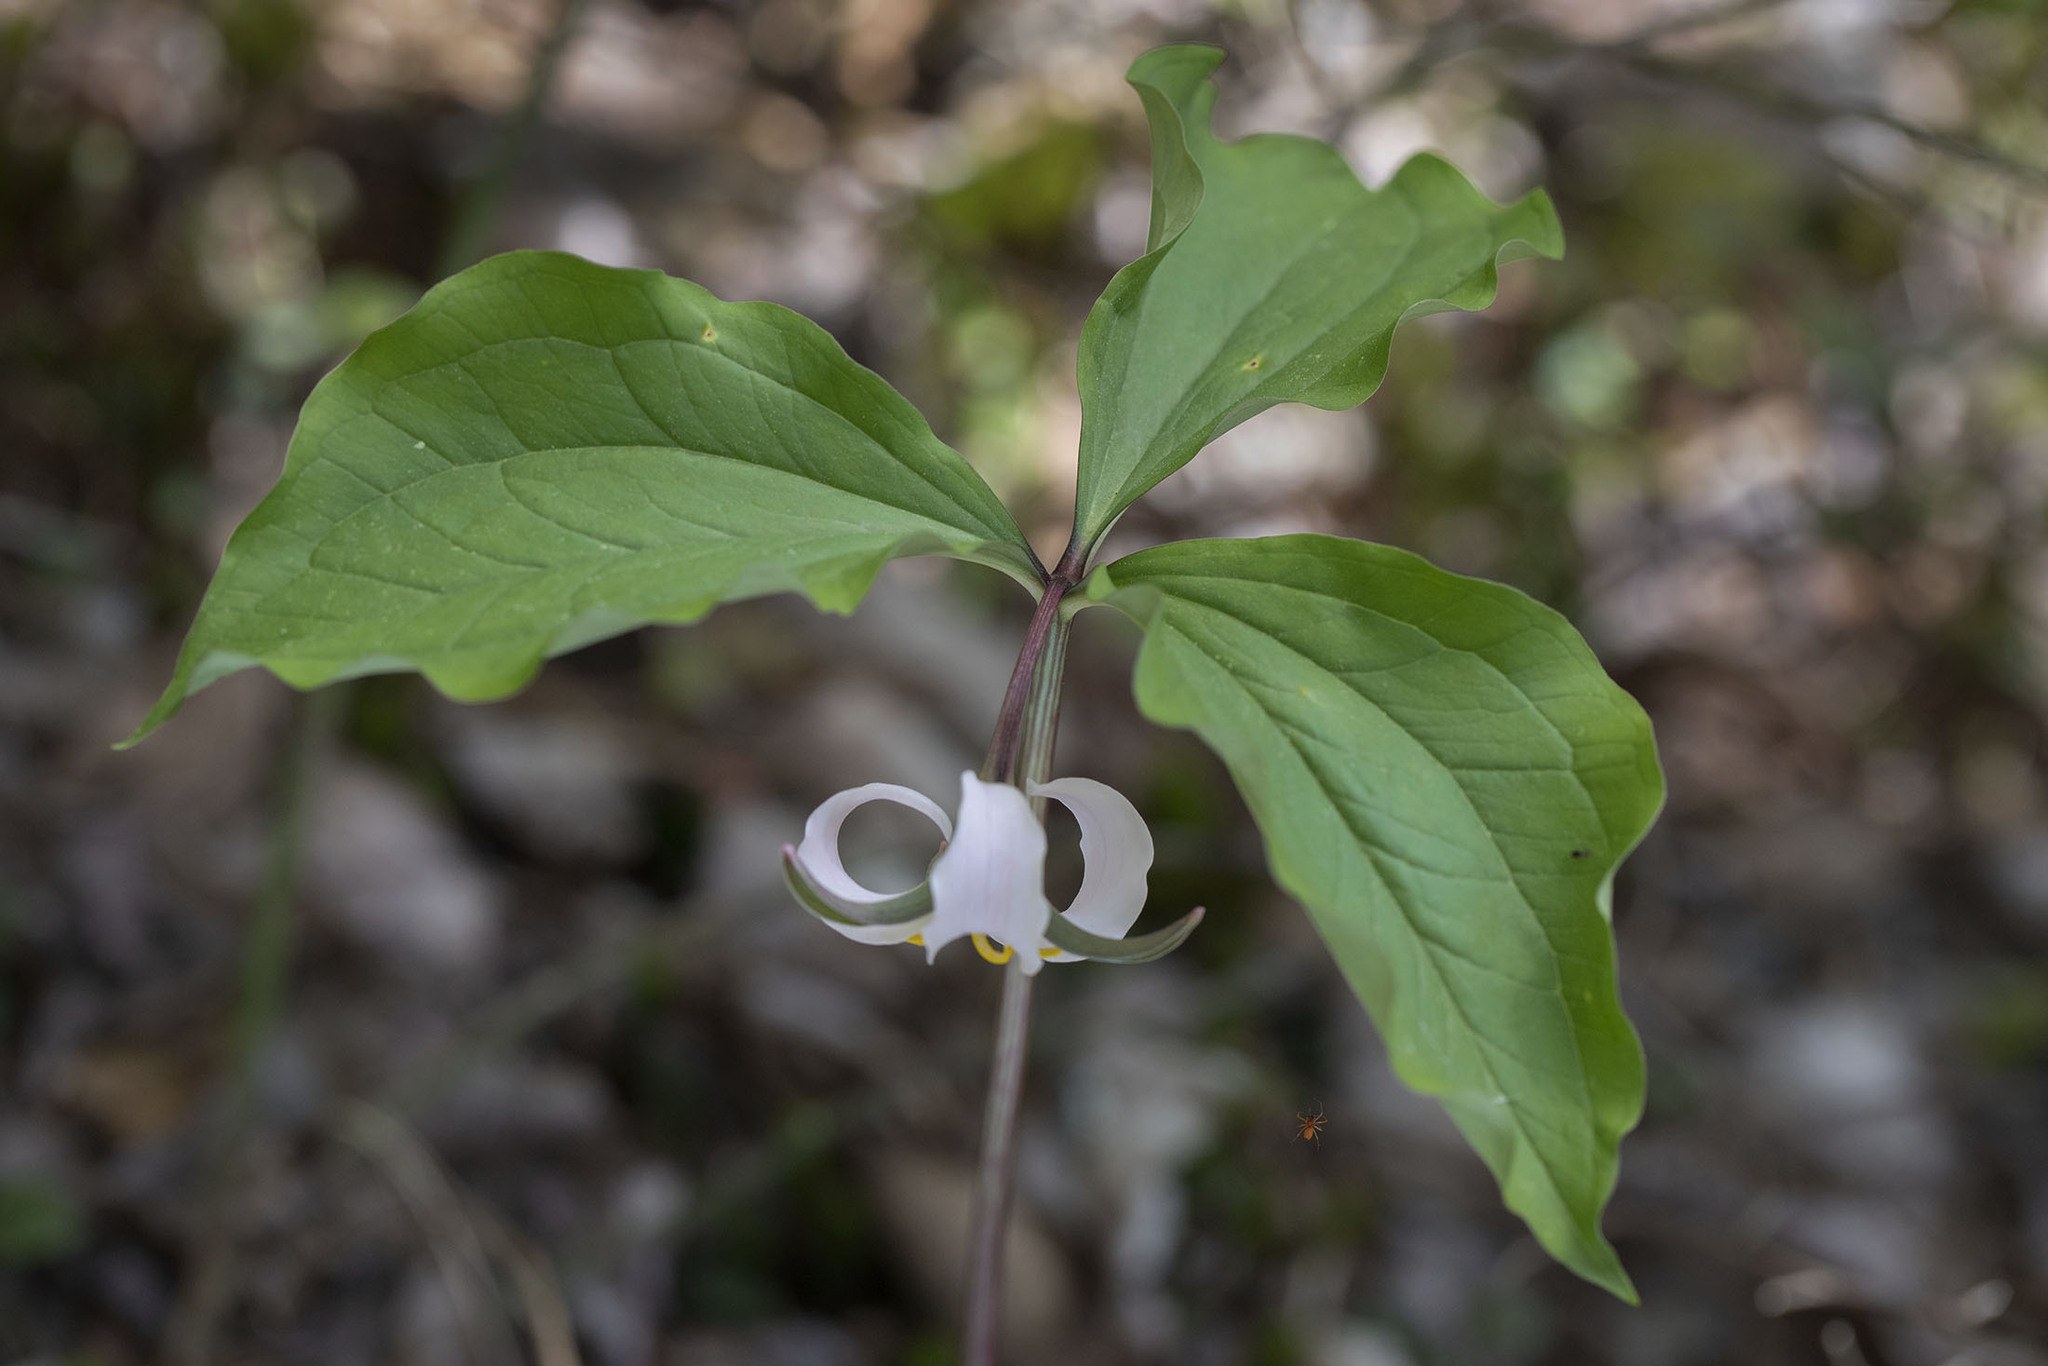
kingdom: Plantae
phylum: Tracheophyta
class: Liliopsida
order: Liliales
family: Melanthiaceae
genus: Trillium
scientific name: Trillium catesbaei
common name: Bashful trillium
